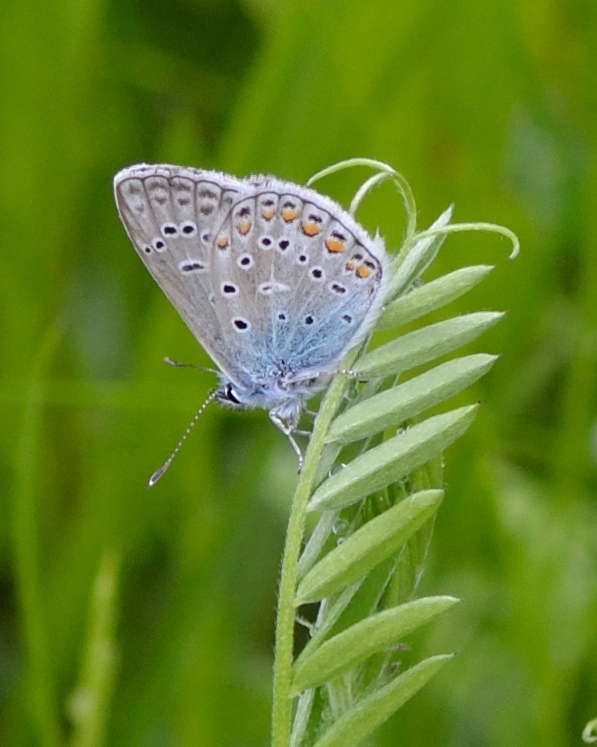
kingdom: Animalia
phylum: Arthropoda
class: Insecta
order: Lepidoptera
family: Lycaenidae
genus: Polyommatus
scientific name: Polyommatus icarus
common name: Common blue
